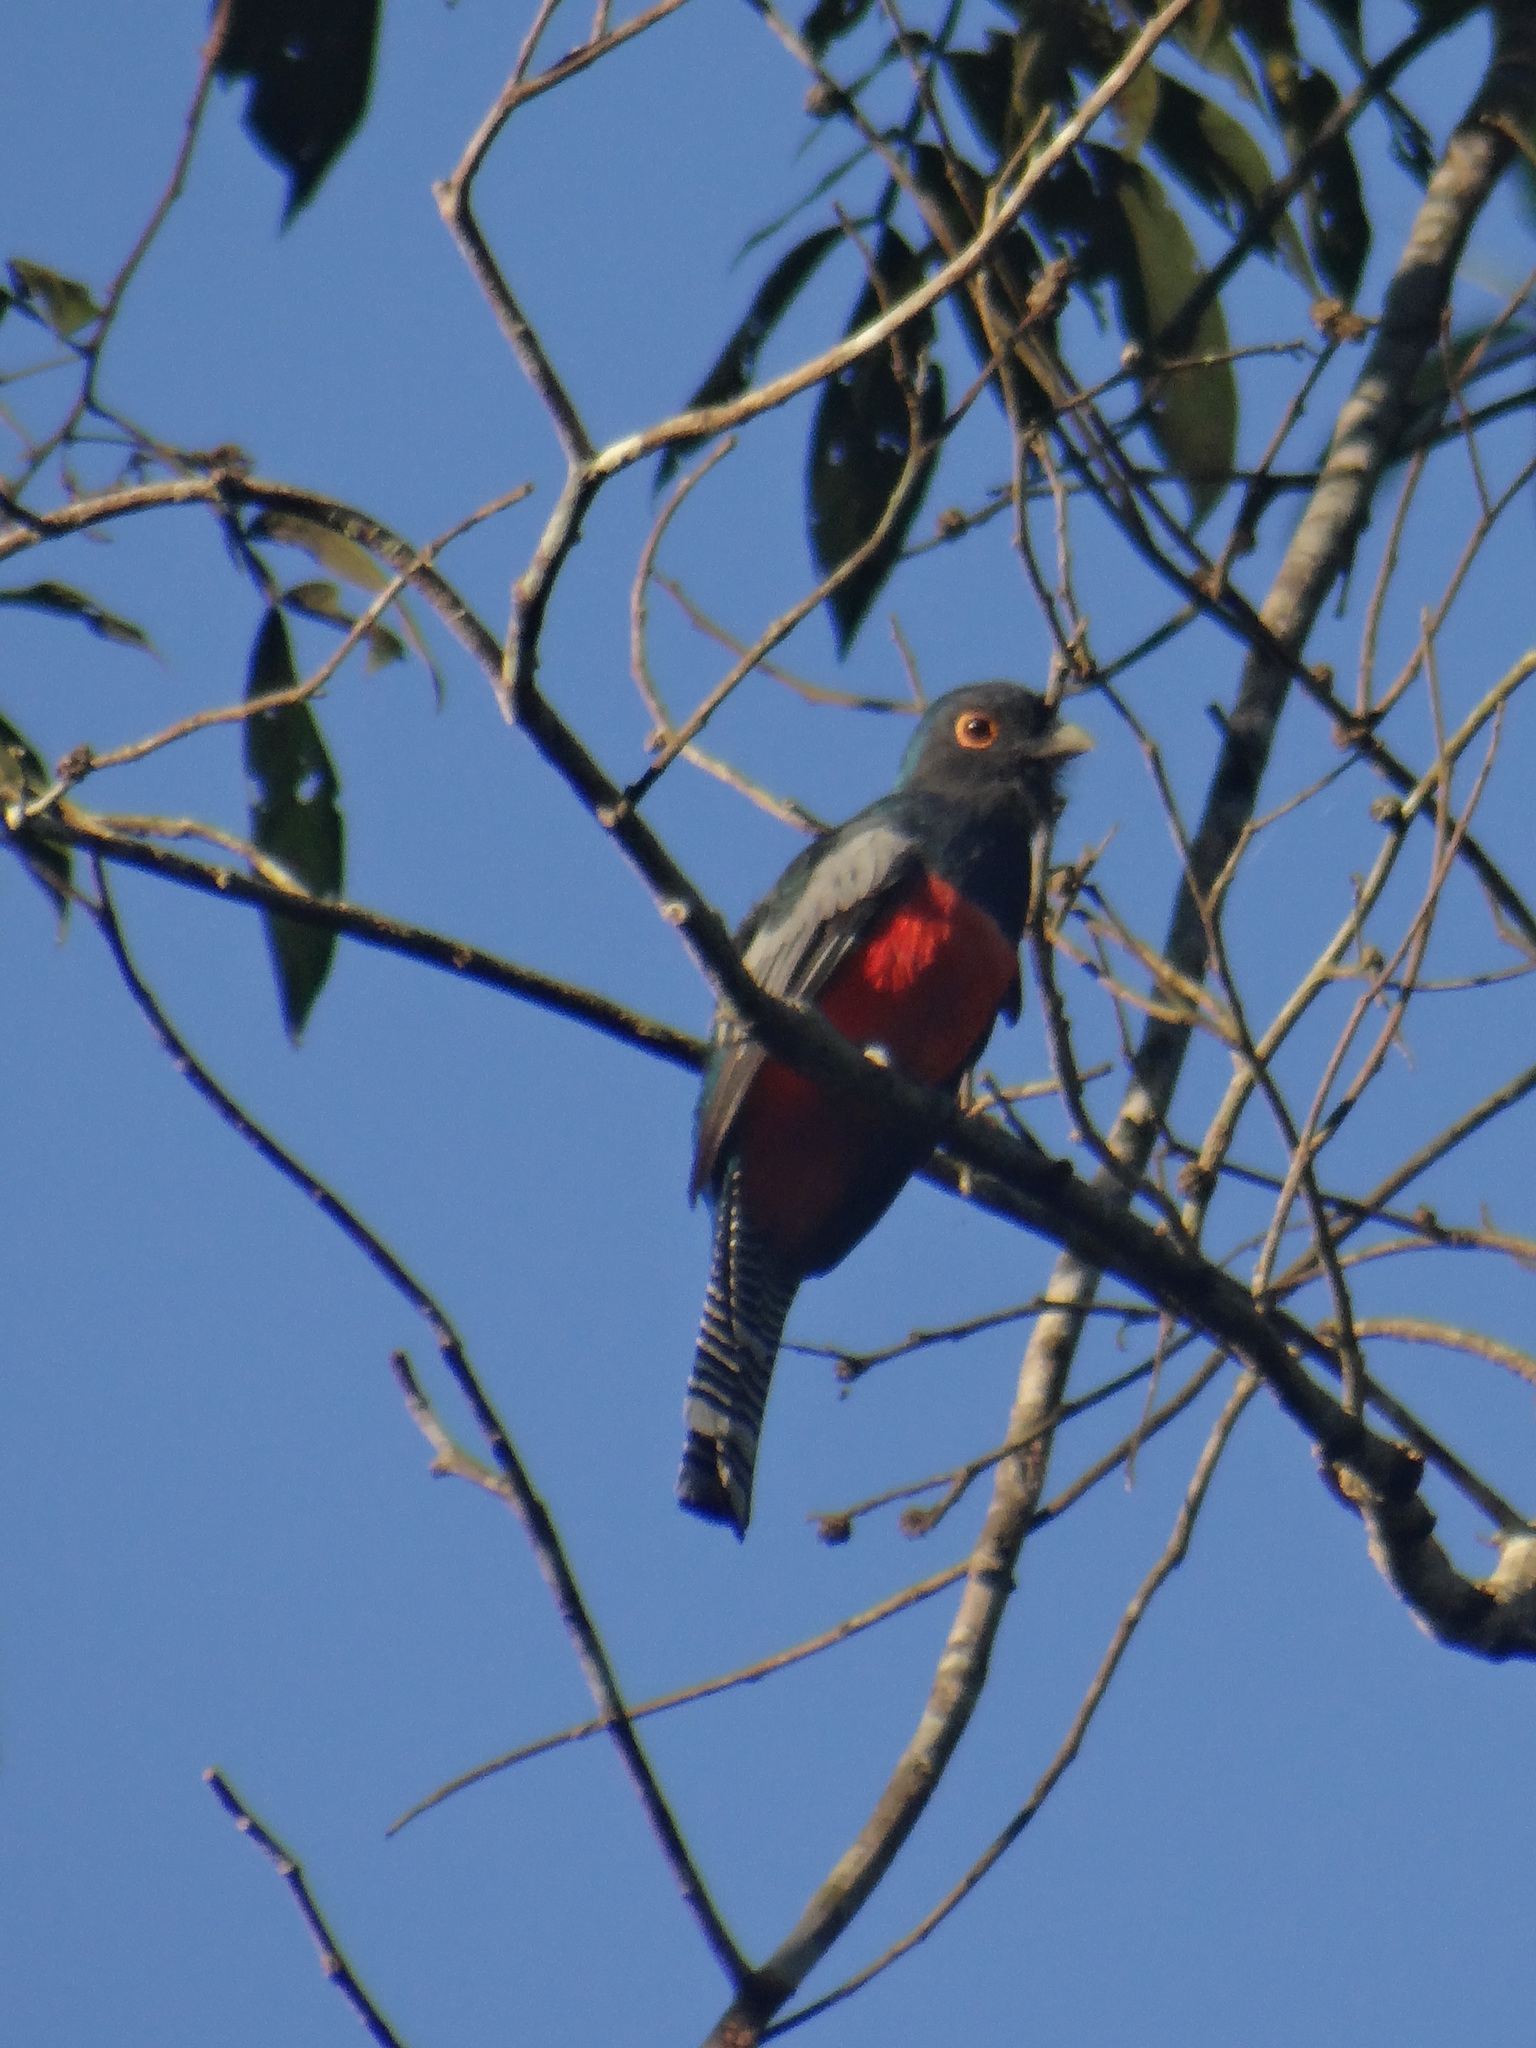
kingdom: Animalia
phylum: Chordata
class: Aves
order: Trogoniformes
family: Trogonidae
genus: Trogon
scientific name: Trogon curucui
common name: Blue-crowned trogon
